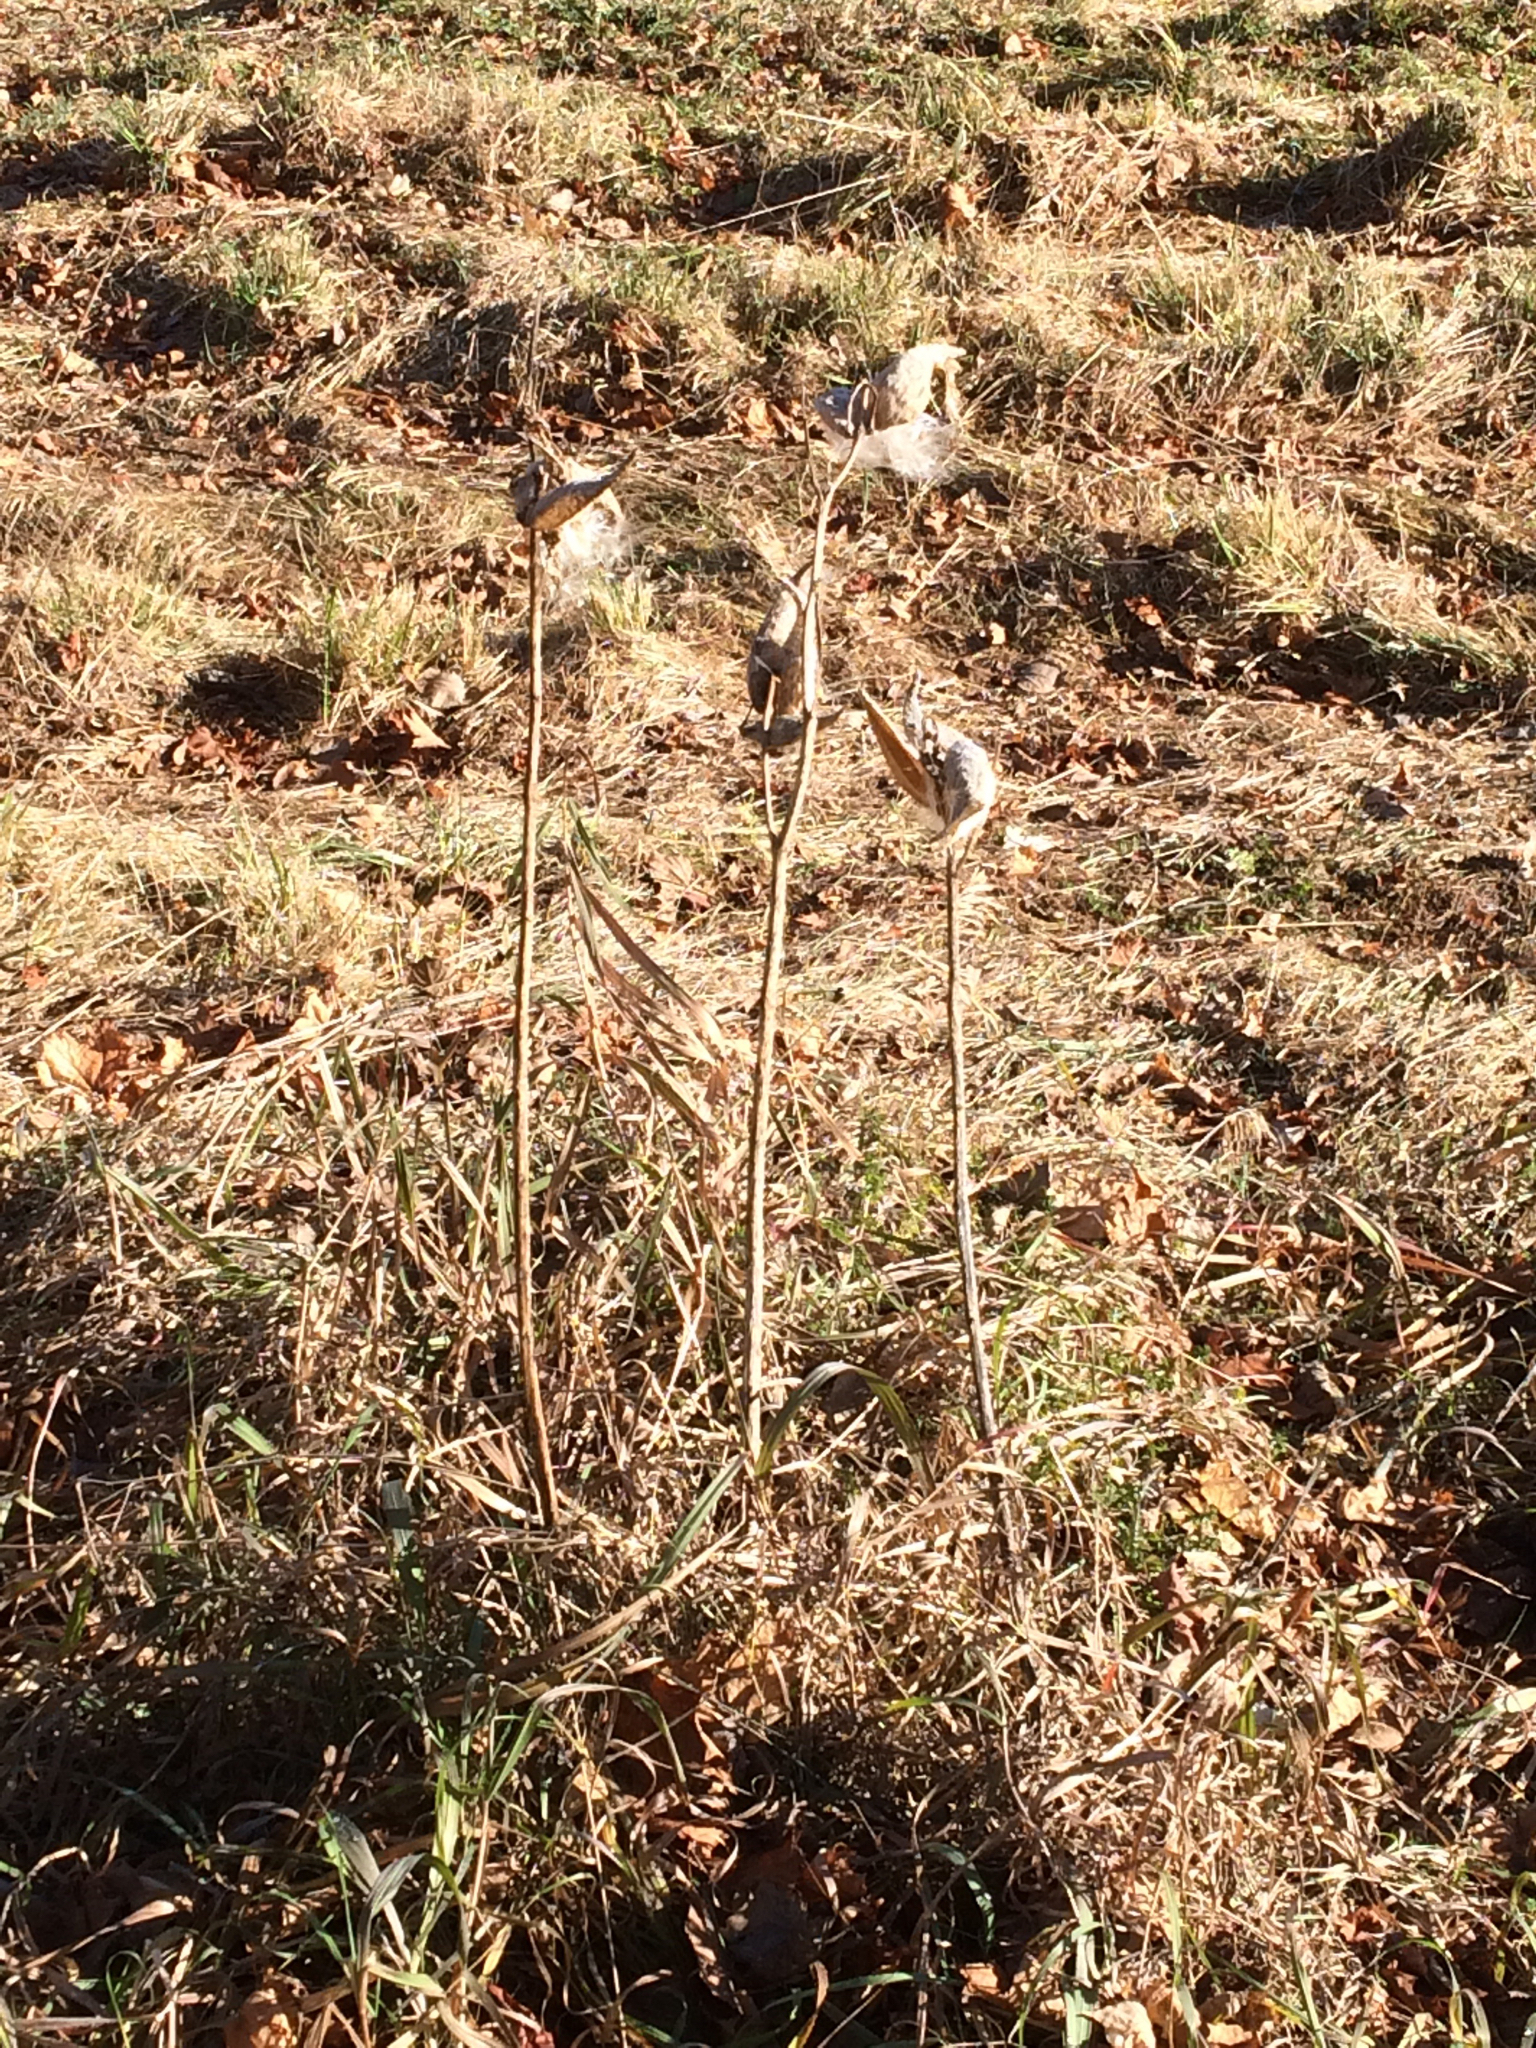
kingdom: Plantae
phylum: Tracheophyta
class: Magnoliopsida
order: Gentianales
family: Apocynaceae
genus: Asclepias
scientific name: Asclepias syriaca
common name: Common milkweed
